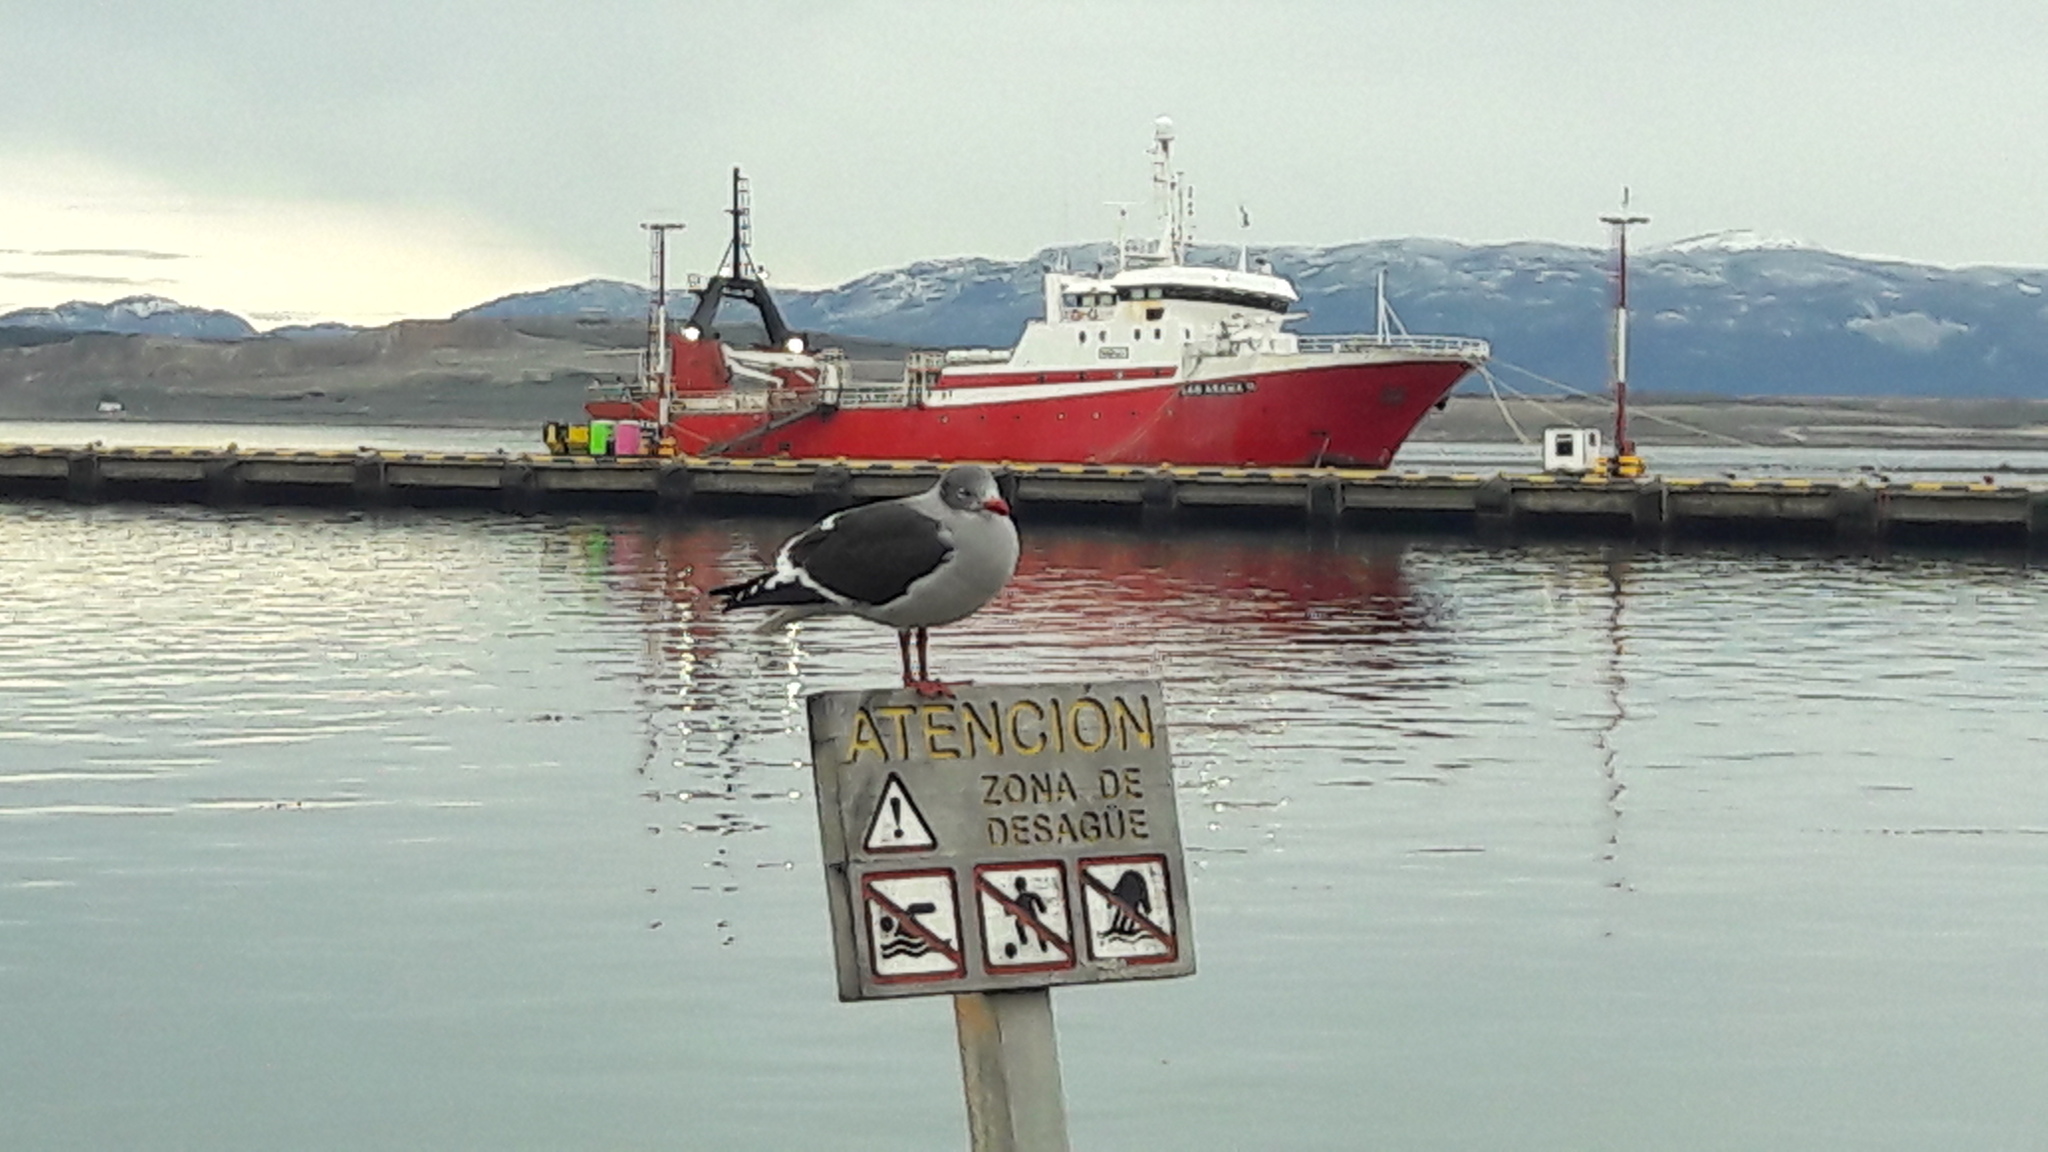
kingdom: Animalia
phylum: Chordata
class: Aves
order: Charadriiformes
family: Laridae
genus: Leucophaeus
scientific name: Leucophaeus scoresbii
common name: Dolphin gull
